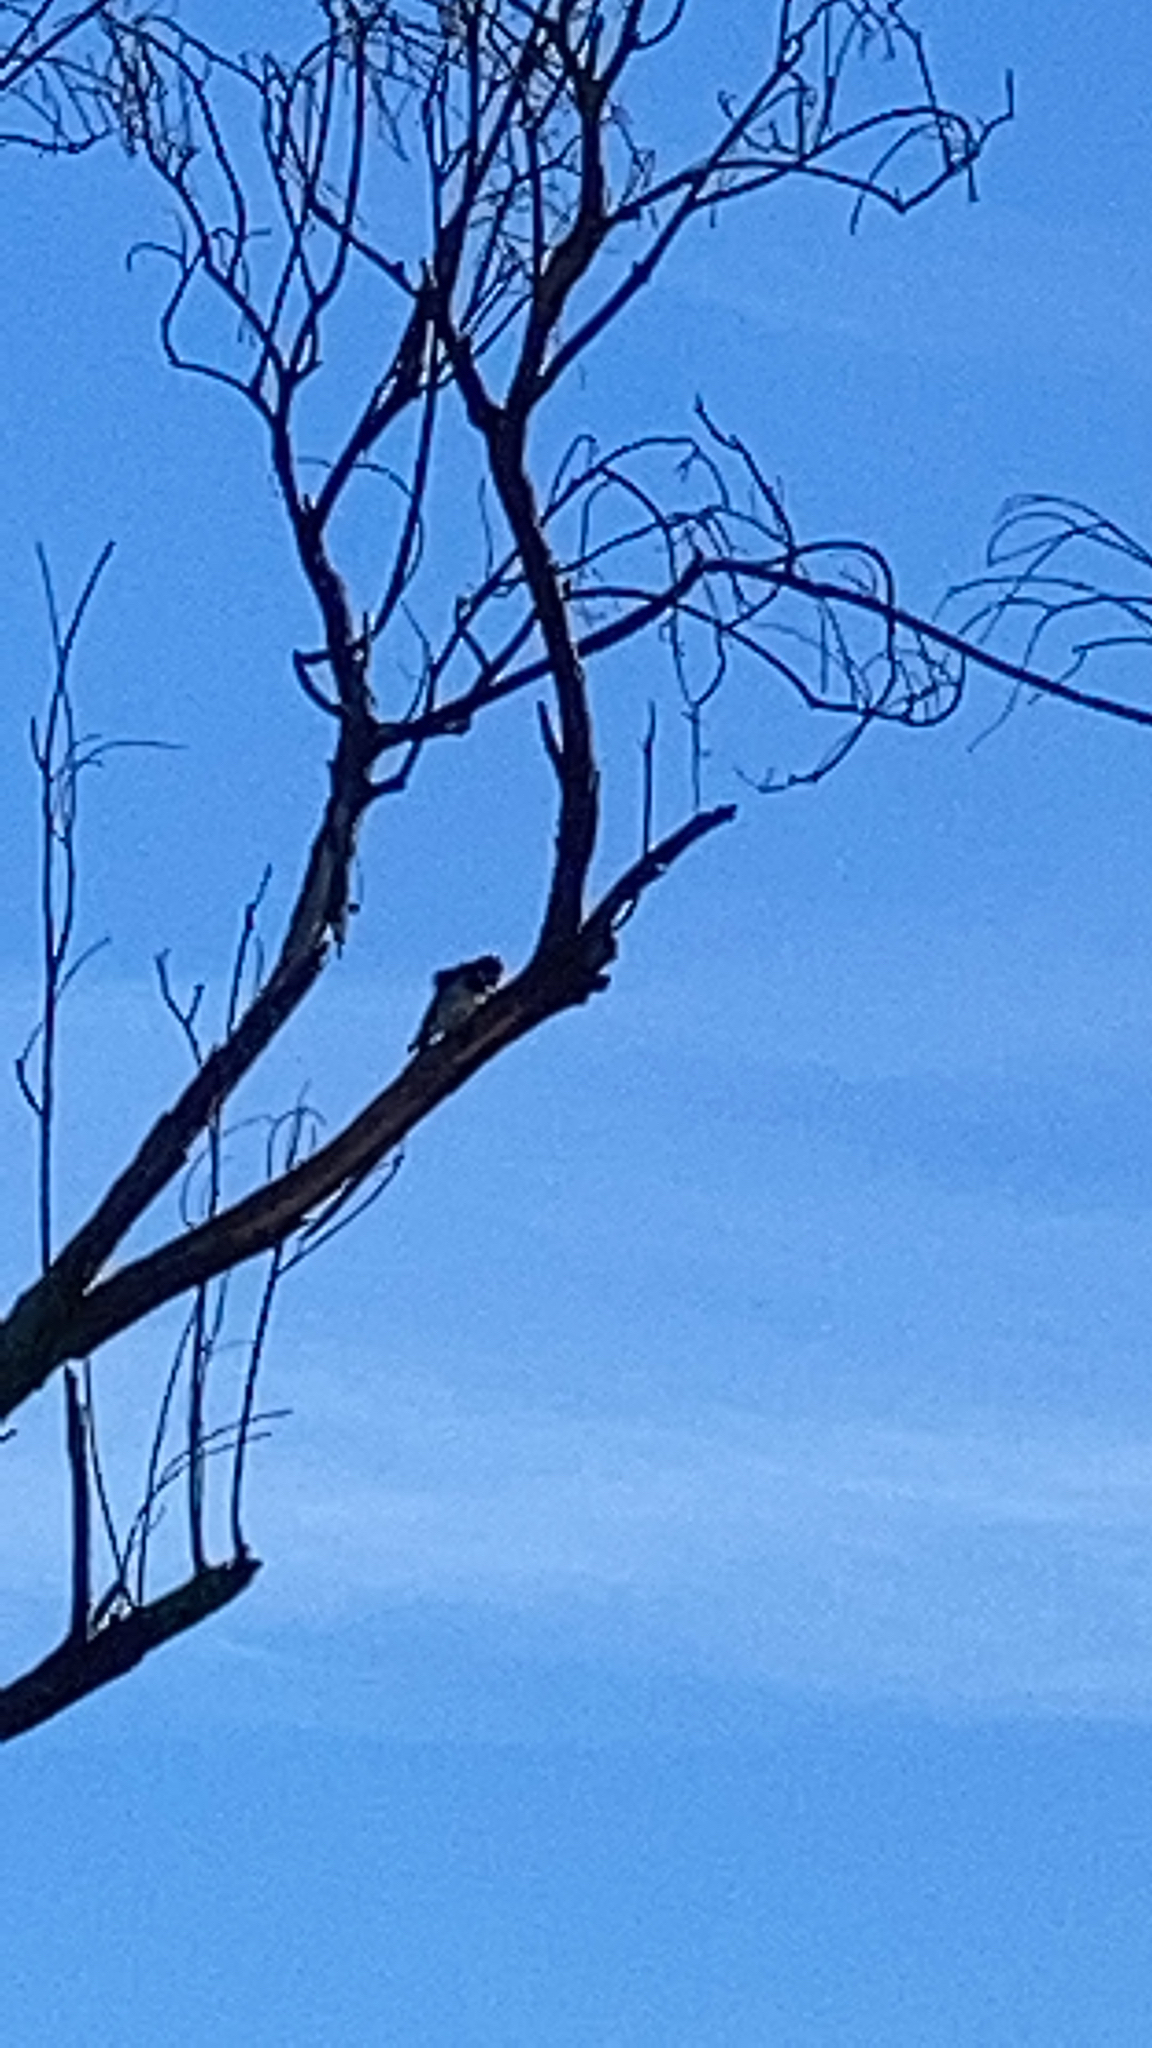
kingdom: Animalia
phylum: Chordata
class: Aves
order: Piciformes
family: Picidae
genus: Melanerpes
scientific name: Melanerpes formicivorus
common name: Acorn woodpecker
